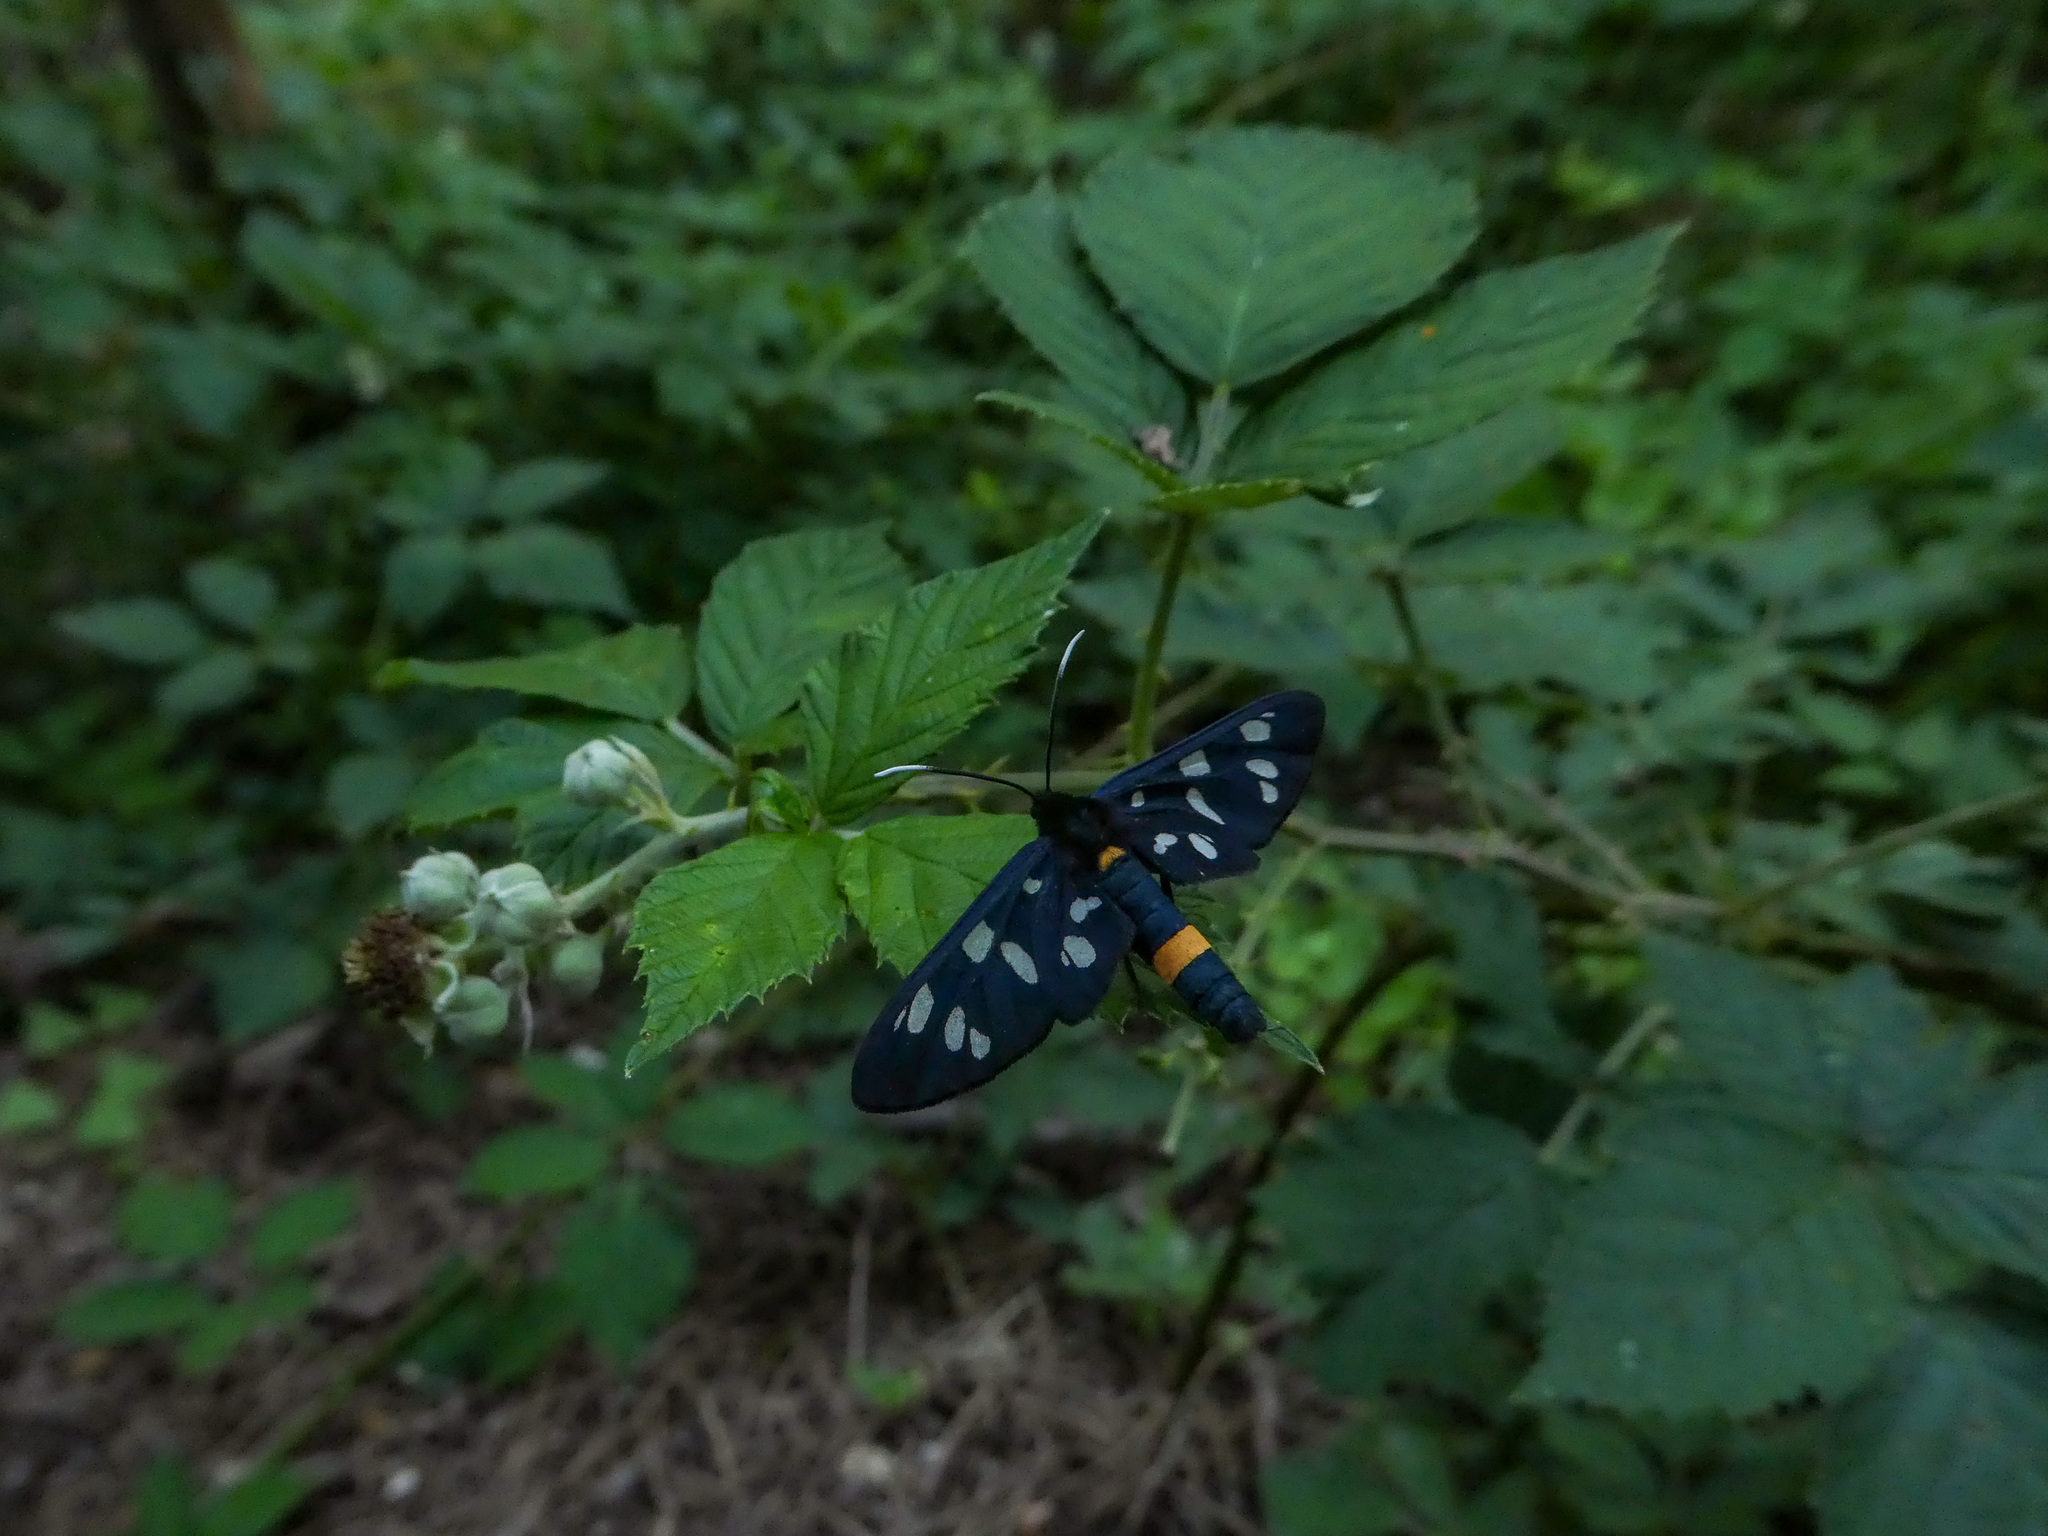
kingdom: Animalia
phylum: Arthropoda
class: Insecta
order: Lepidoptera
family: Erebidae
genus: Amata
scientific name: Amata phegea
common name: Nine-spotted
